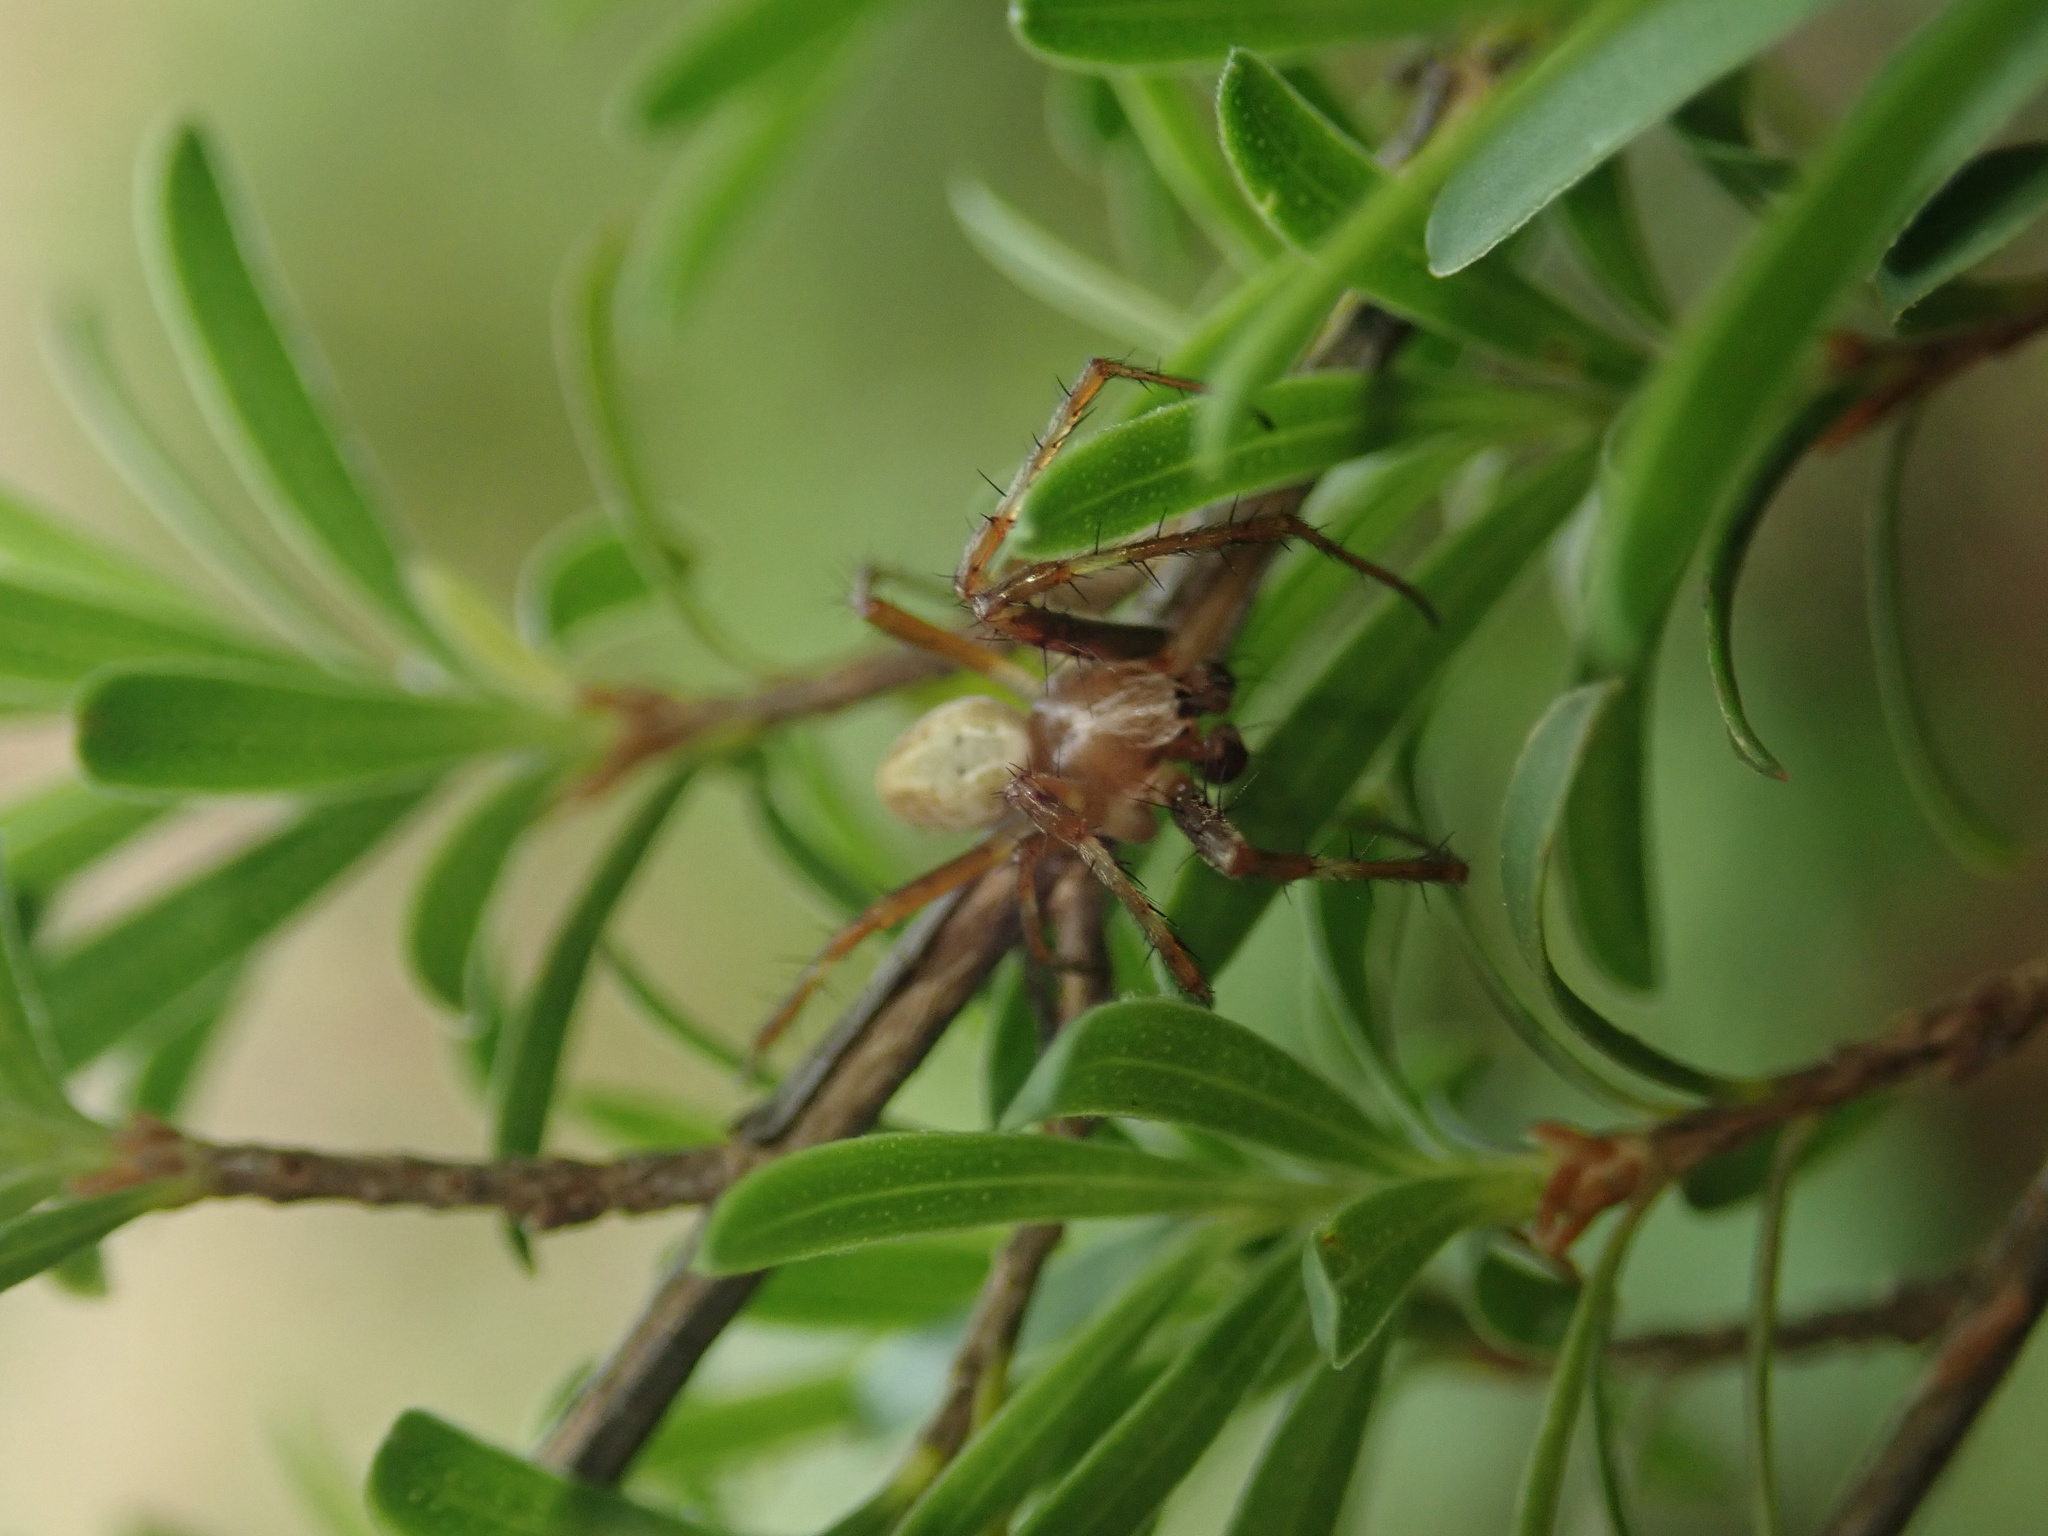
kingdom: Animalia
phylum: Arthropoda
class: Arachnida
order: Araneae
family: Araneidae
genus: Novaranea
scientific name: Novaranea queribunda
